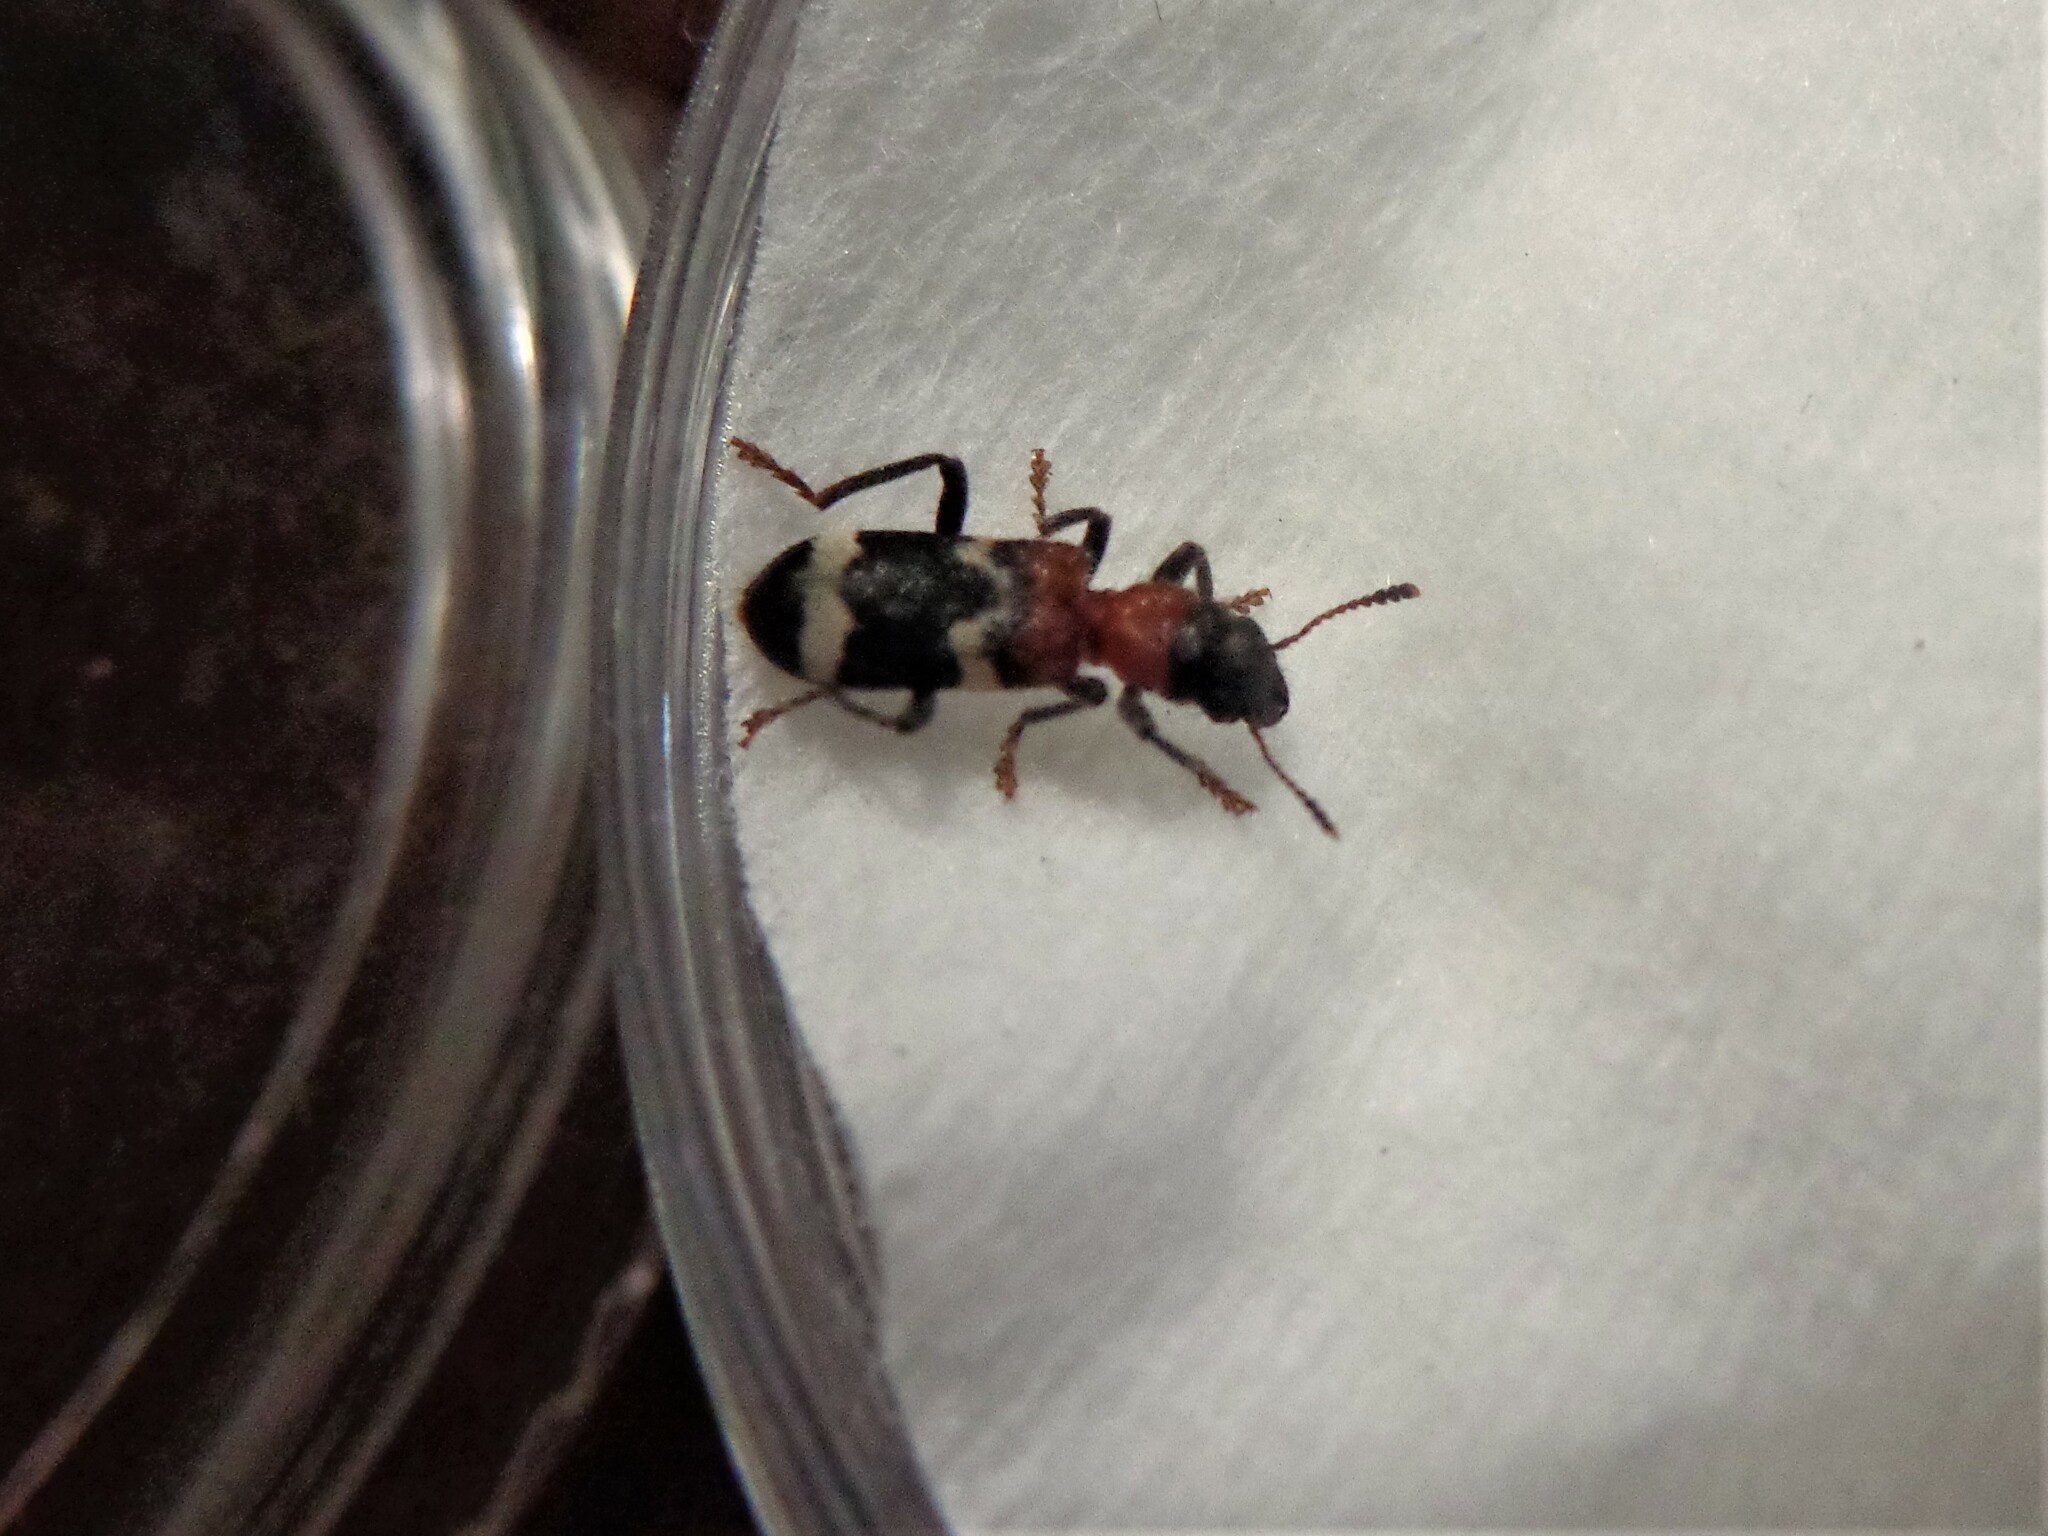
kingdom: Animalia
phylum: Arthropoda
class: Insecta
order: Coleoptera
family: Cleridae
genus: Thanasimus
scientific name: Thanasimus formicarius
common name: Ant beetle
